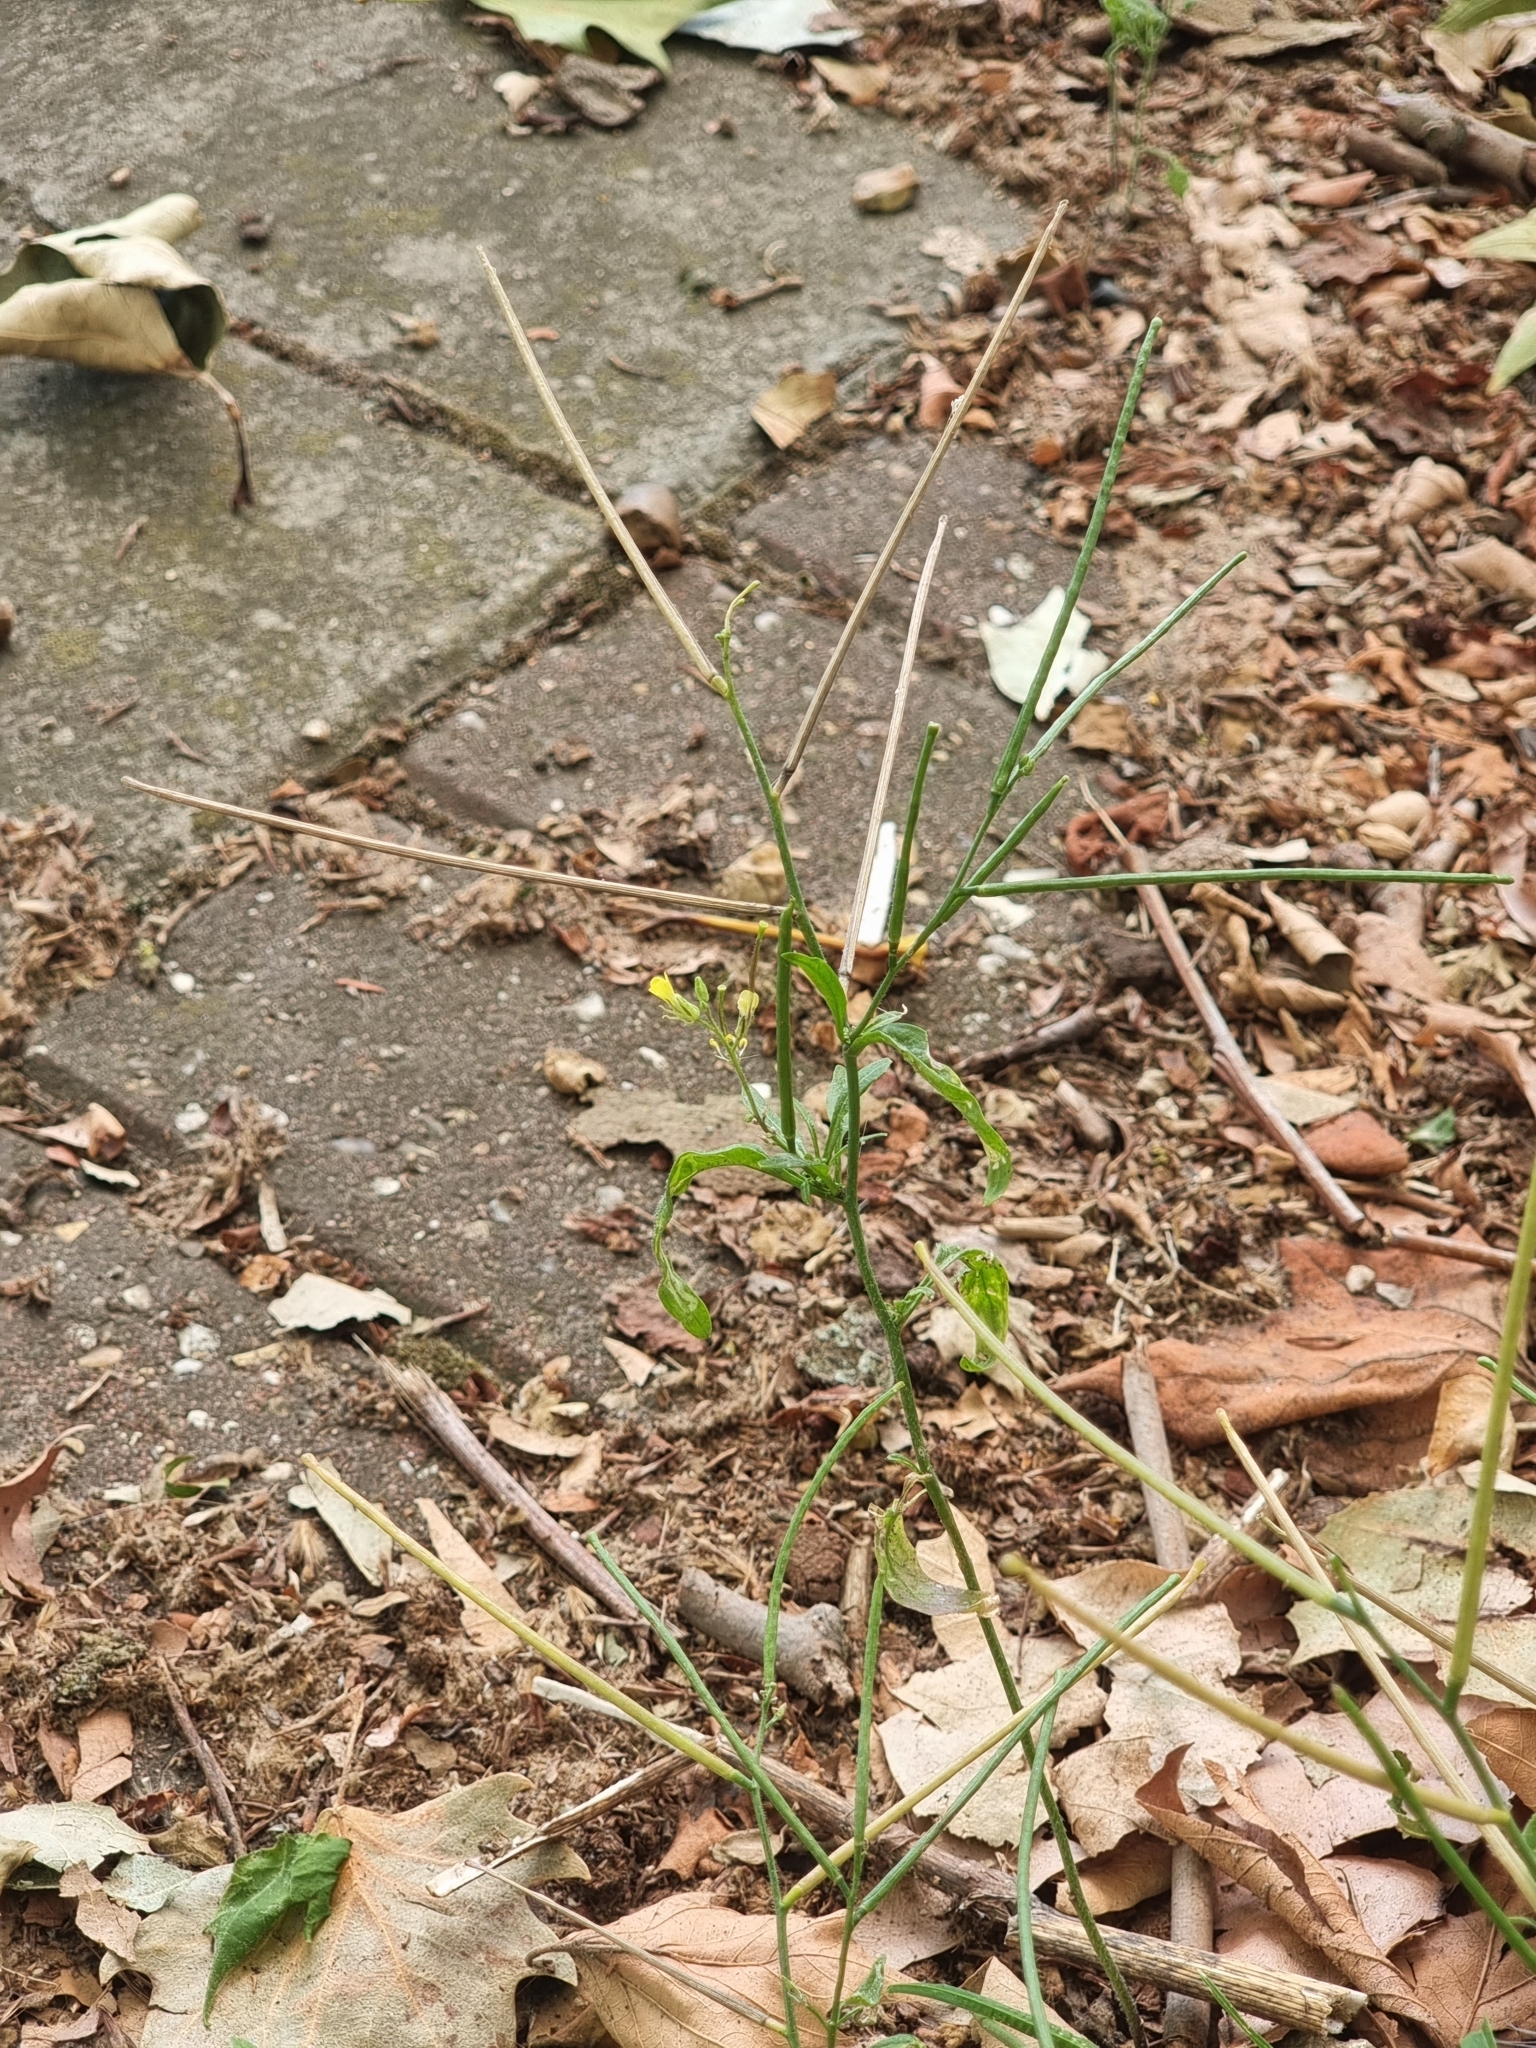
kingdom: Plantae
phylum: Tracheophyta
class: Magnoliopsida
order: Brassicales
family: Brassicaceae
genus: Sisymbrium
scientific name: Sisymbrium orientale
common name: Eastern rocket
